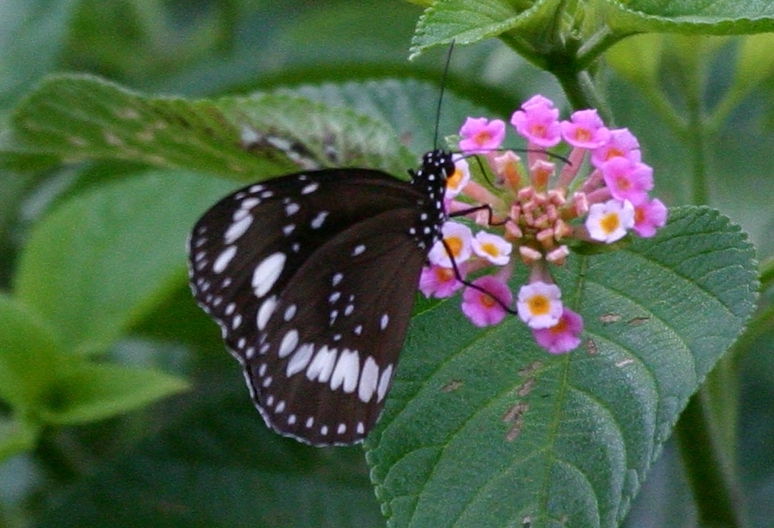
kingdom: Animalia
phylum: Arthropoda
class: Insecta
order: Lepidoptera
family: Nymphalidae
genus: Euploea
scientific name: Euploea core
